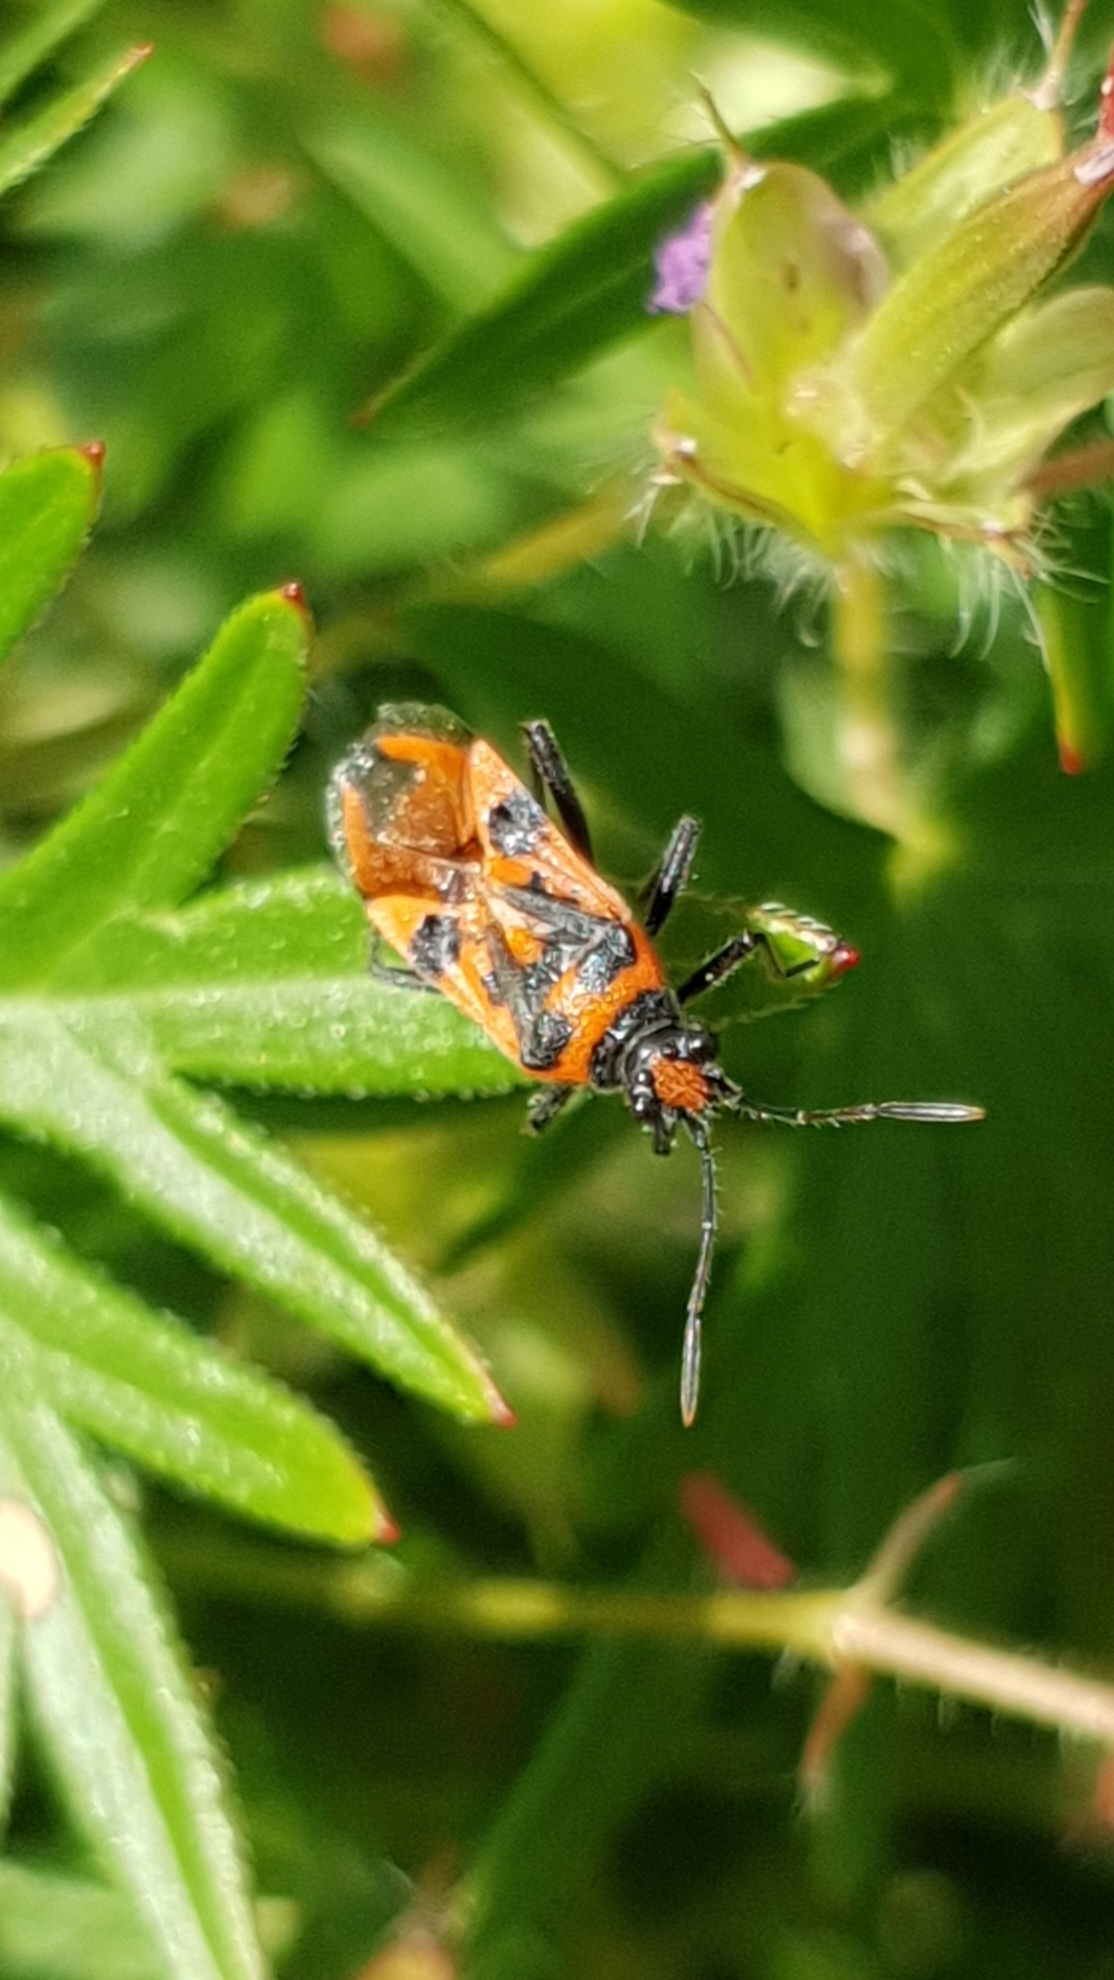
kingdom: Animalia
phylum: Arthropoda
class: Insecta
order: Hemiptera
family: Rhopalidae
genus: Corizus
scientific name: Corizus hyoscyami
